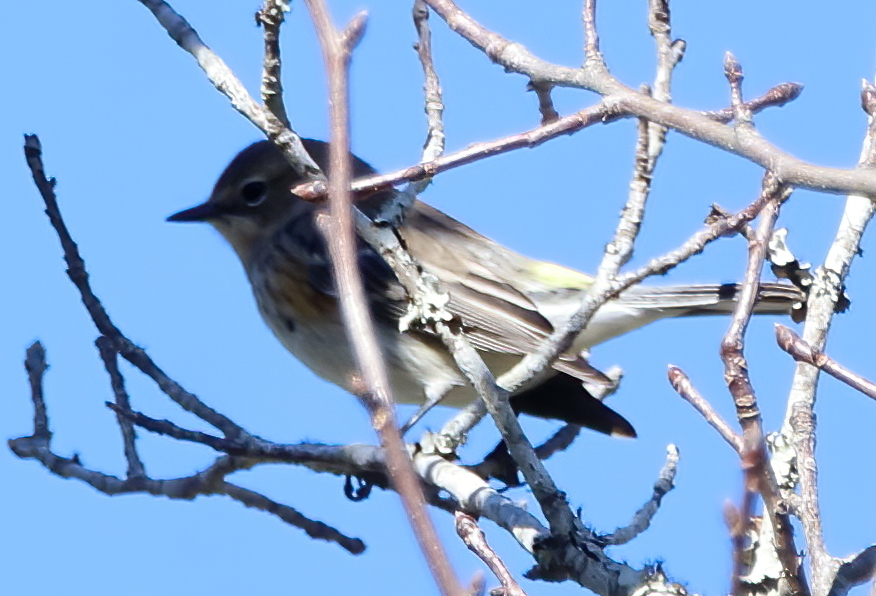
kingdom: Animalia
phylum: Chordata
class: Aves
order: Passeriformes
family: Parulidae
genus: Setophaga
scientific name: Setophaga coronata
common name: Myrtle warbler
